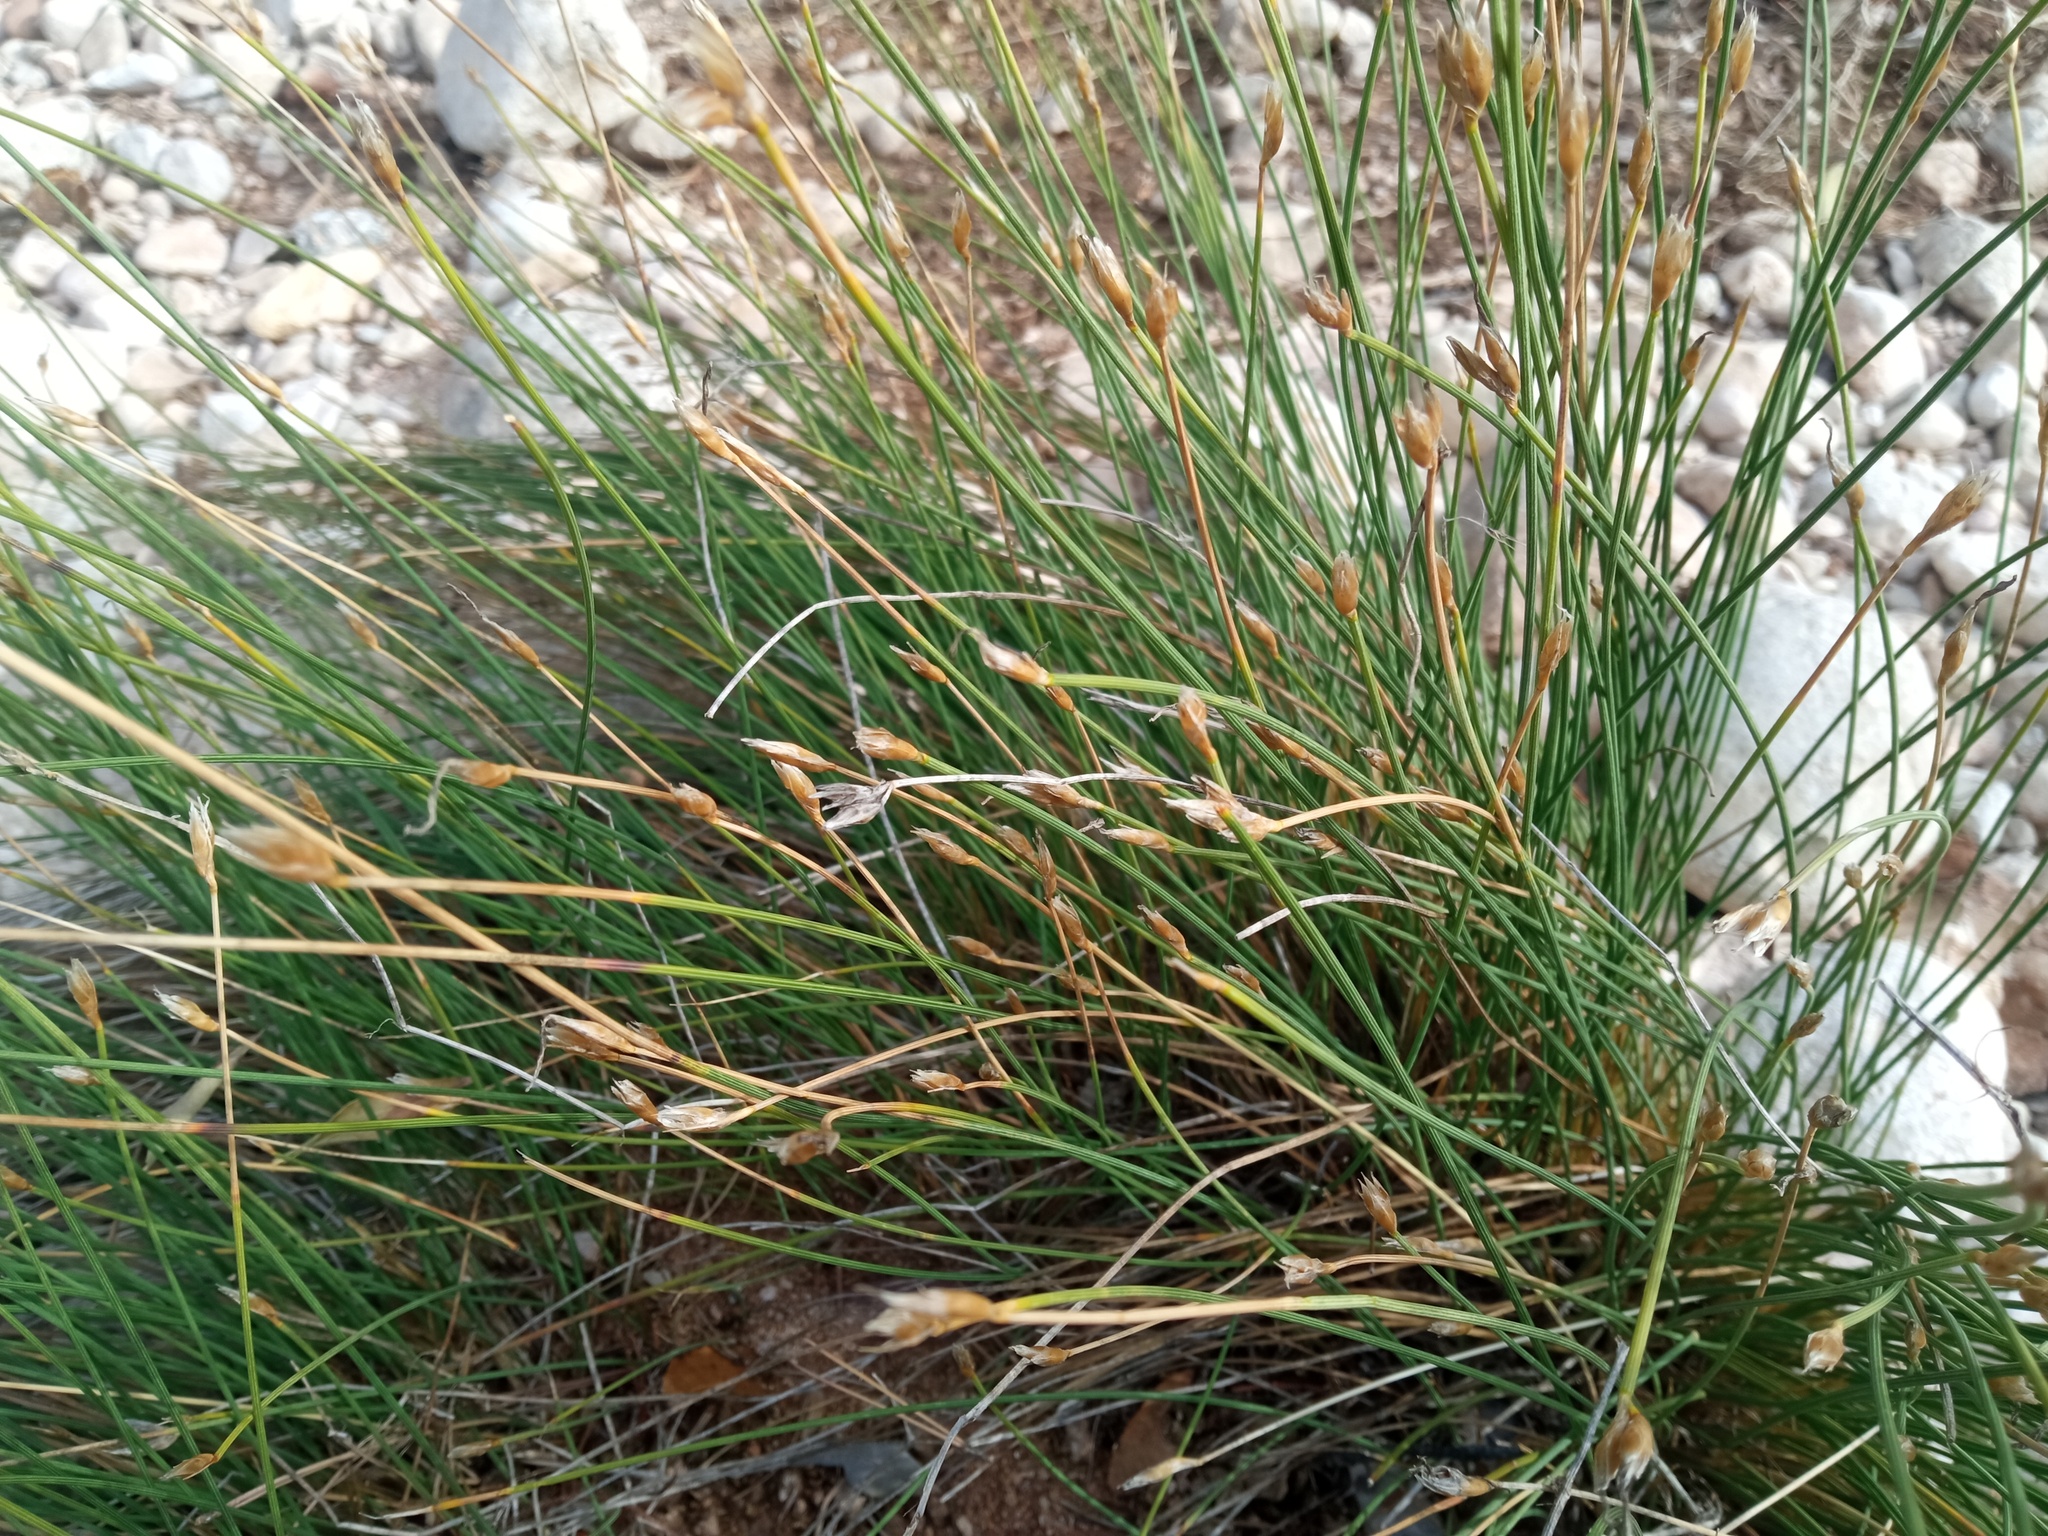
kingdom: Plantae
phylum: Tracheophyta
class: Liliopsida
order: Asparagales
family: Asparagaceae
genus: Aphyllanthes
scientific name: Aphyllanthes monspeliensis
